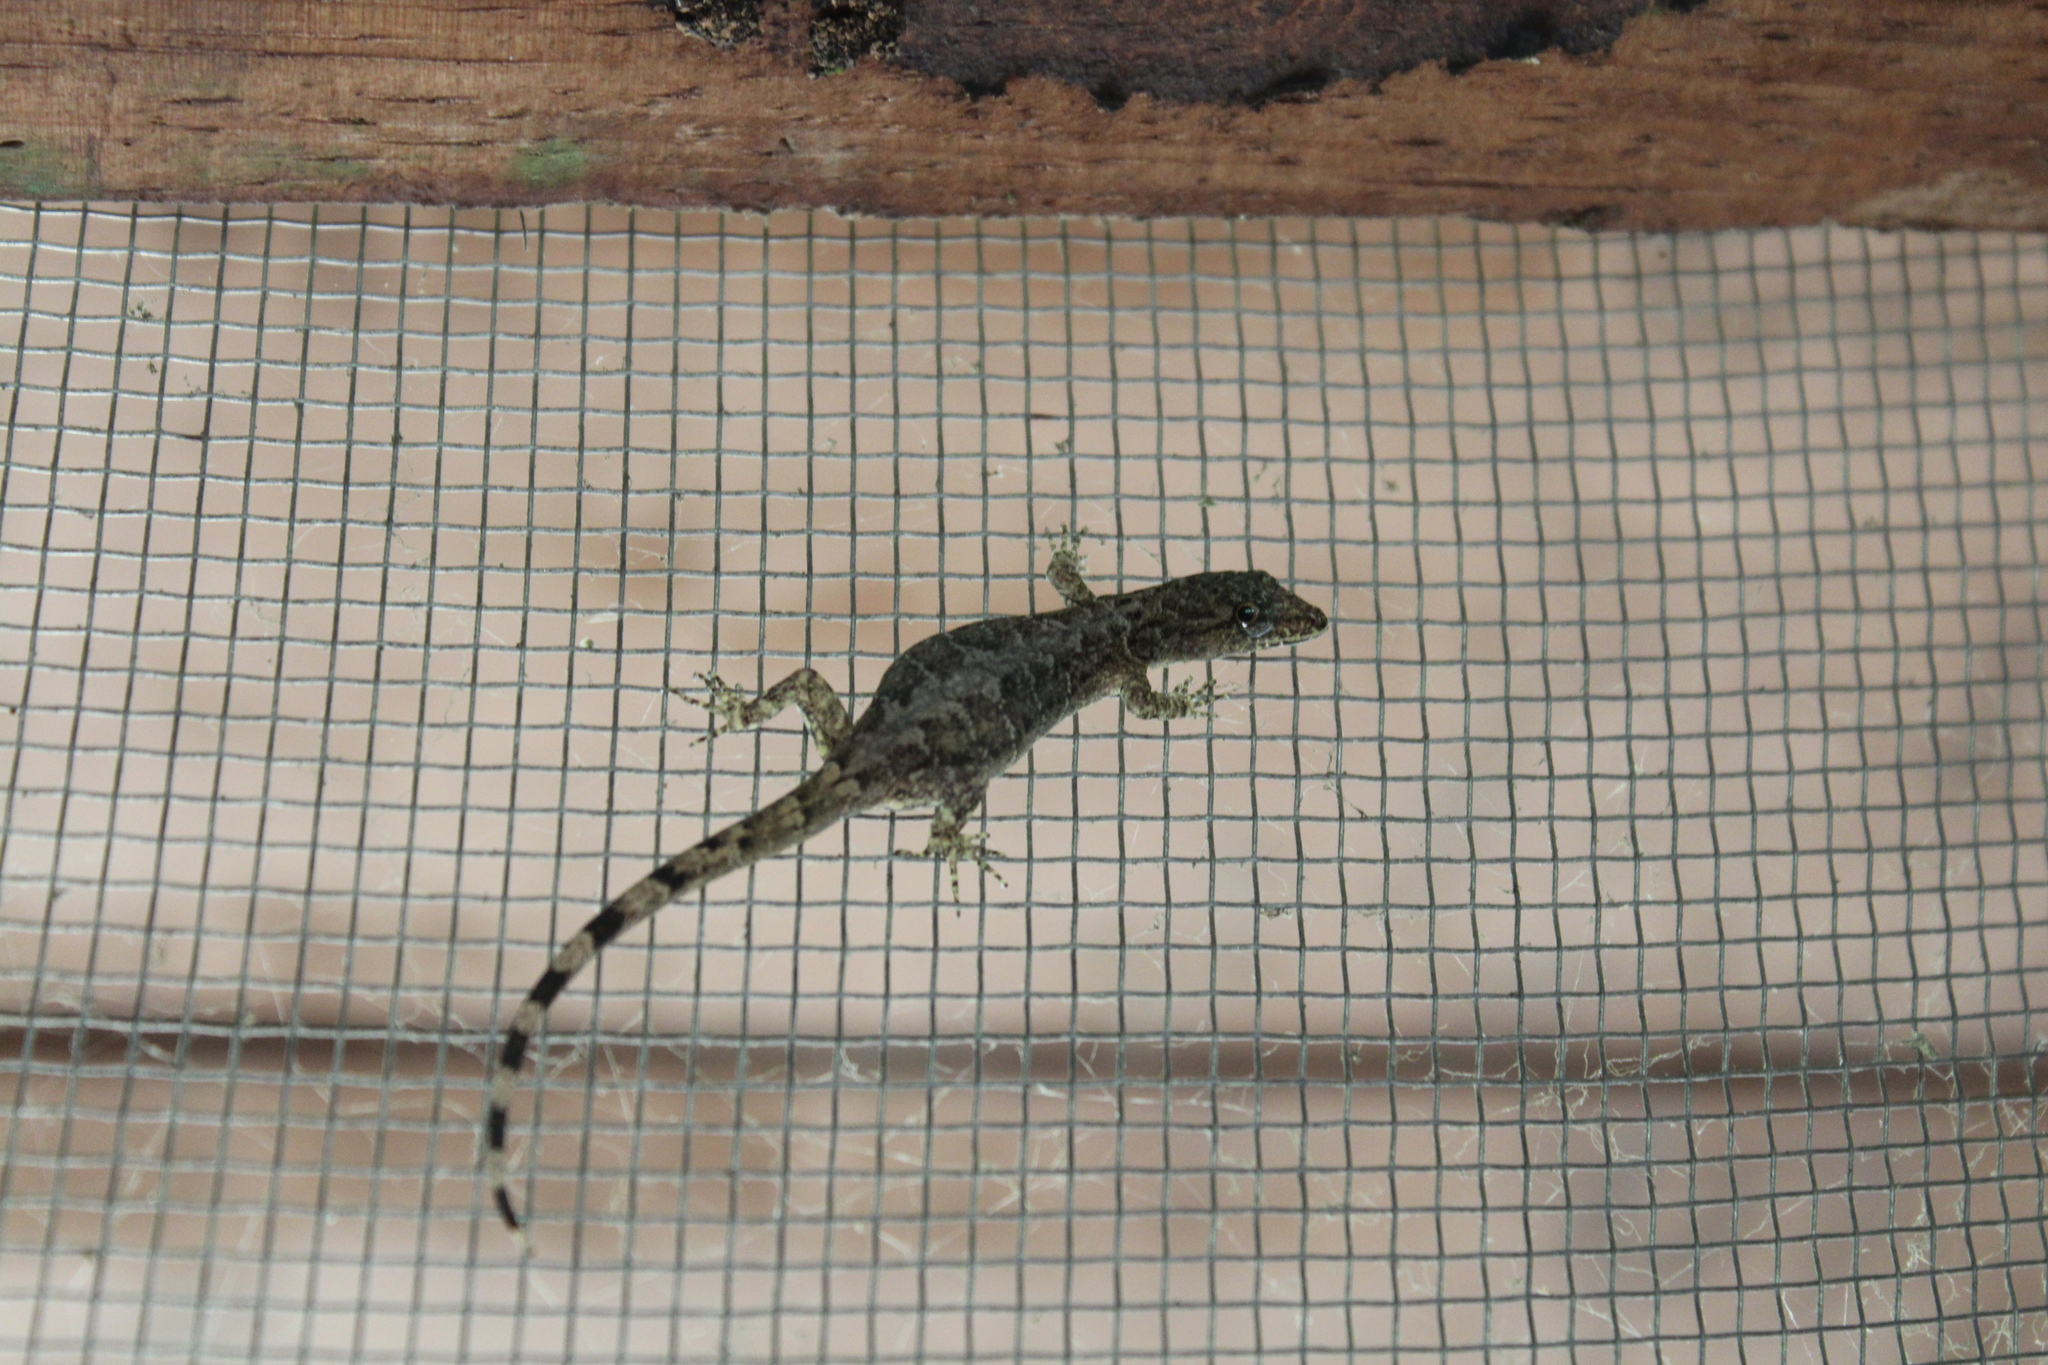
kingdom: Animalia
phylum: Chordata
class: Squamata
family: Sphaerodactylidae
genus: Gonatodes
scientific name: Gonatodes humeralis
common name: South american clawed gecko
